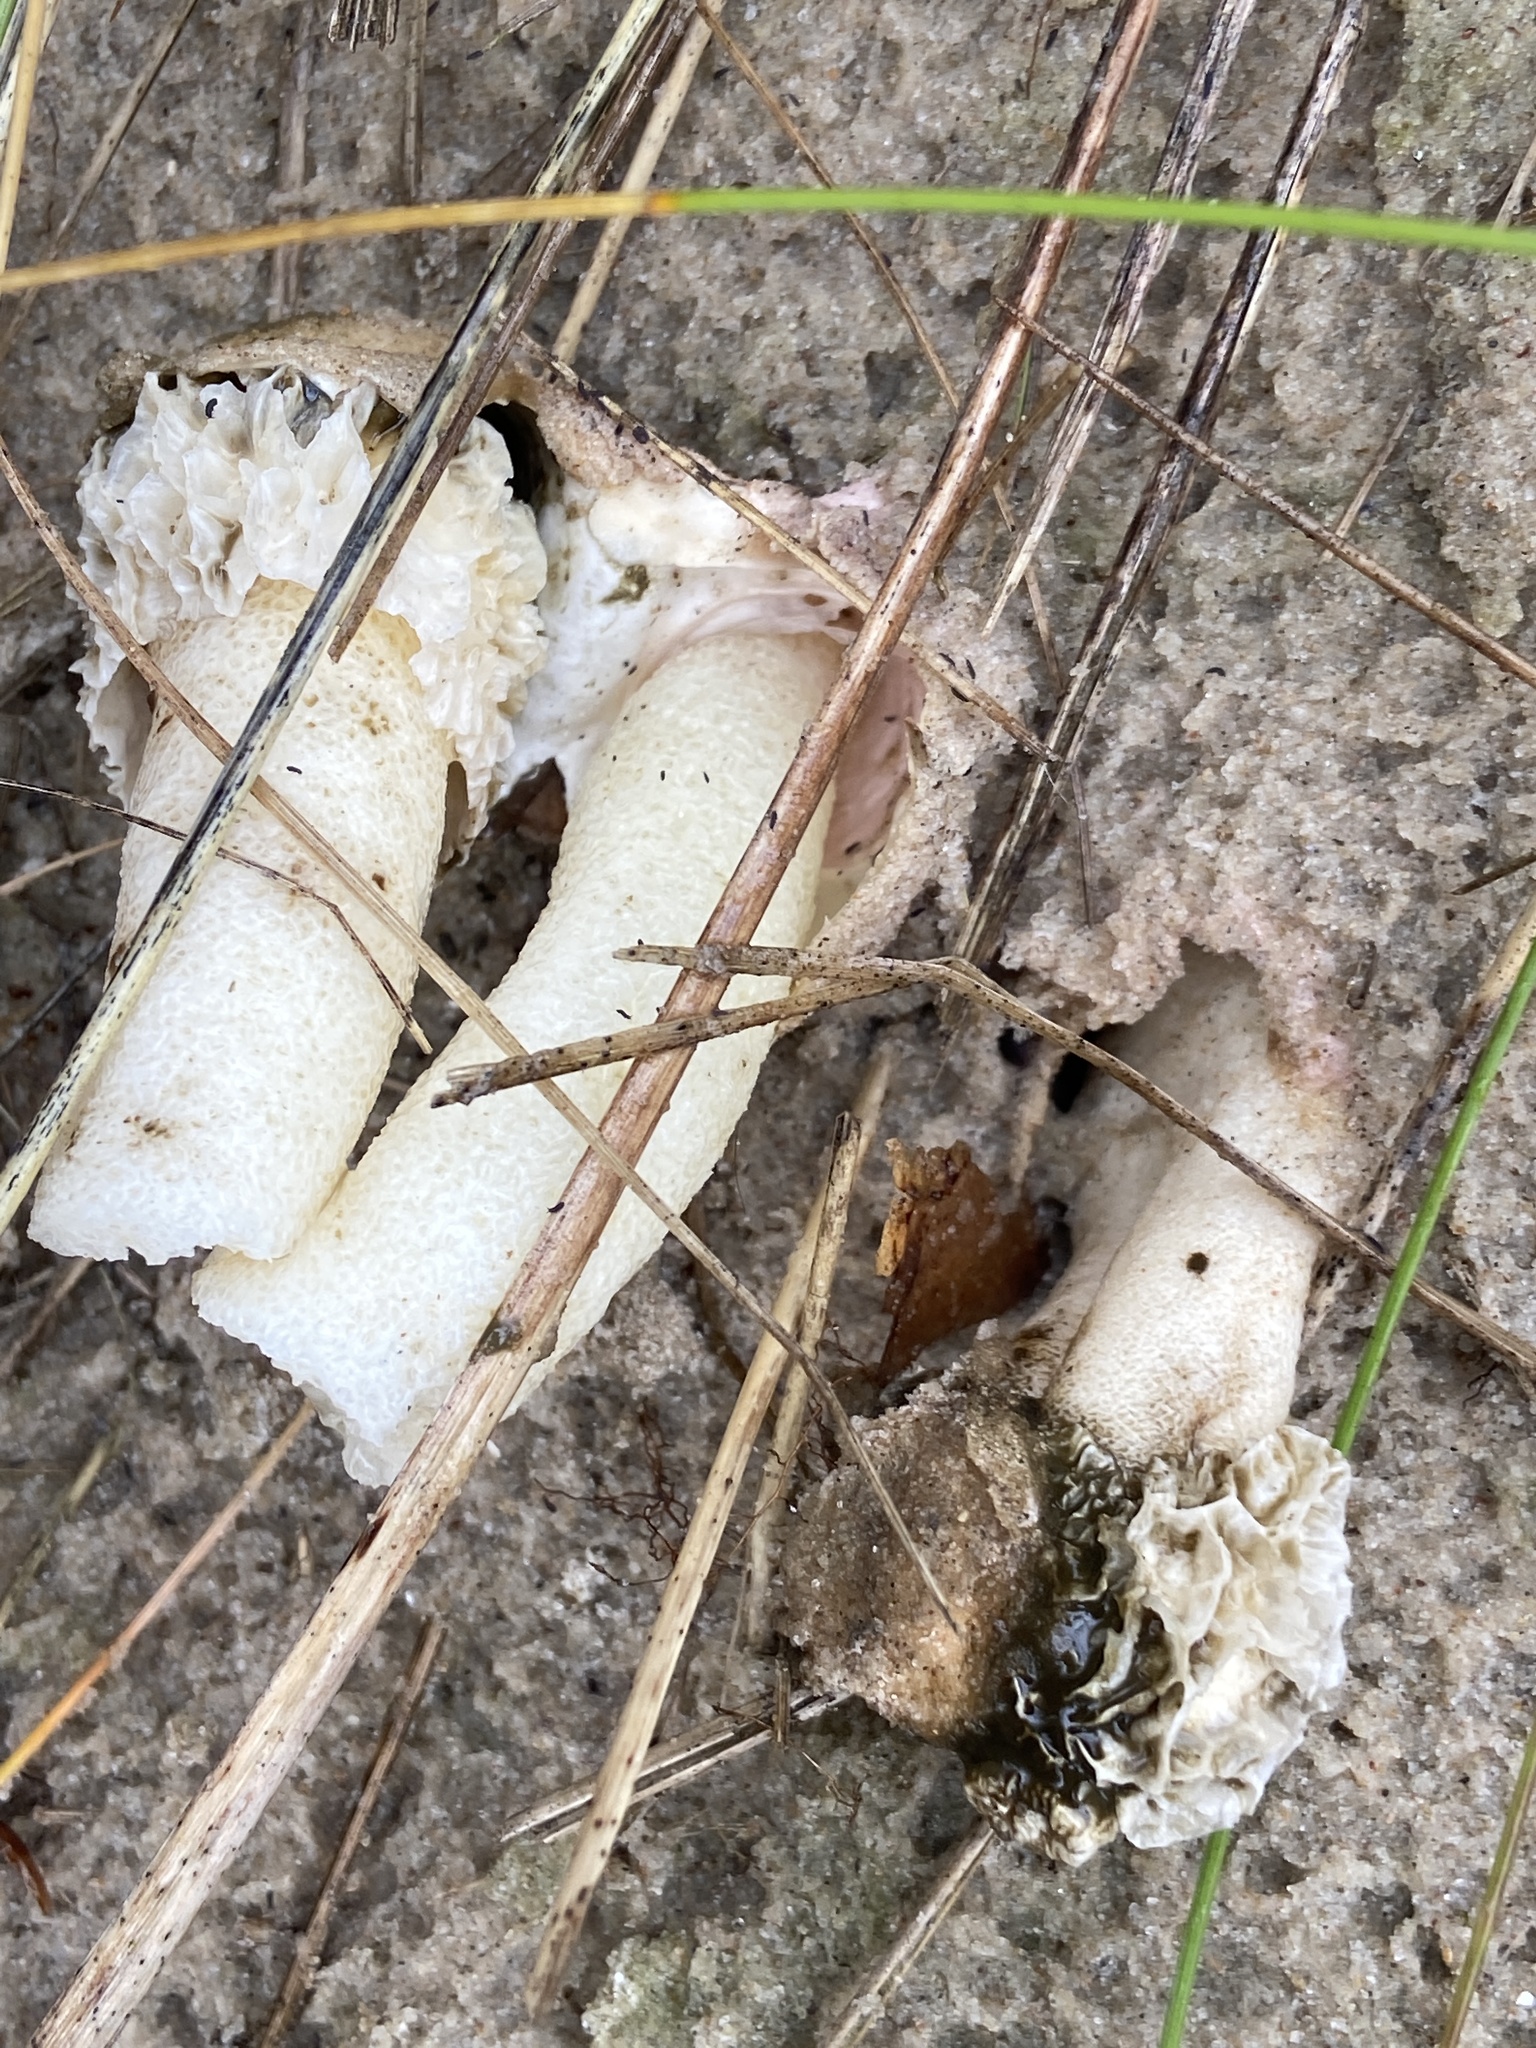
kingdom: Animalia
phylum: Arthropoda
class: Insecta
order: Coleoptera
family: Staphylinidae
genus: Tachyporus
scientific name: Tachyporus hypnorum
